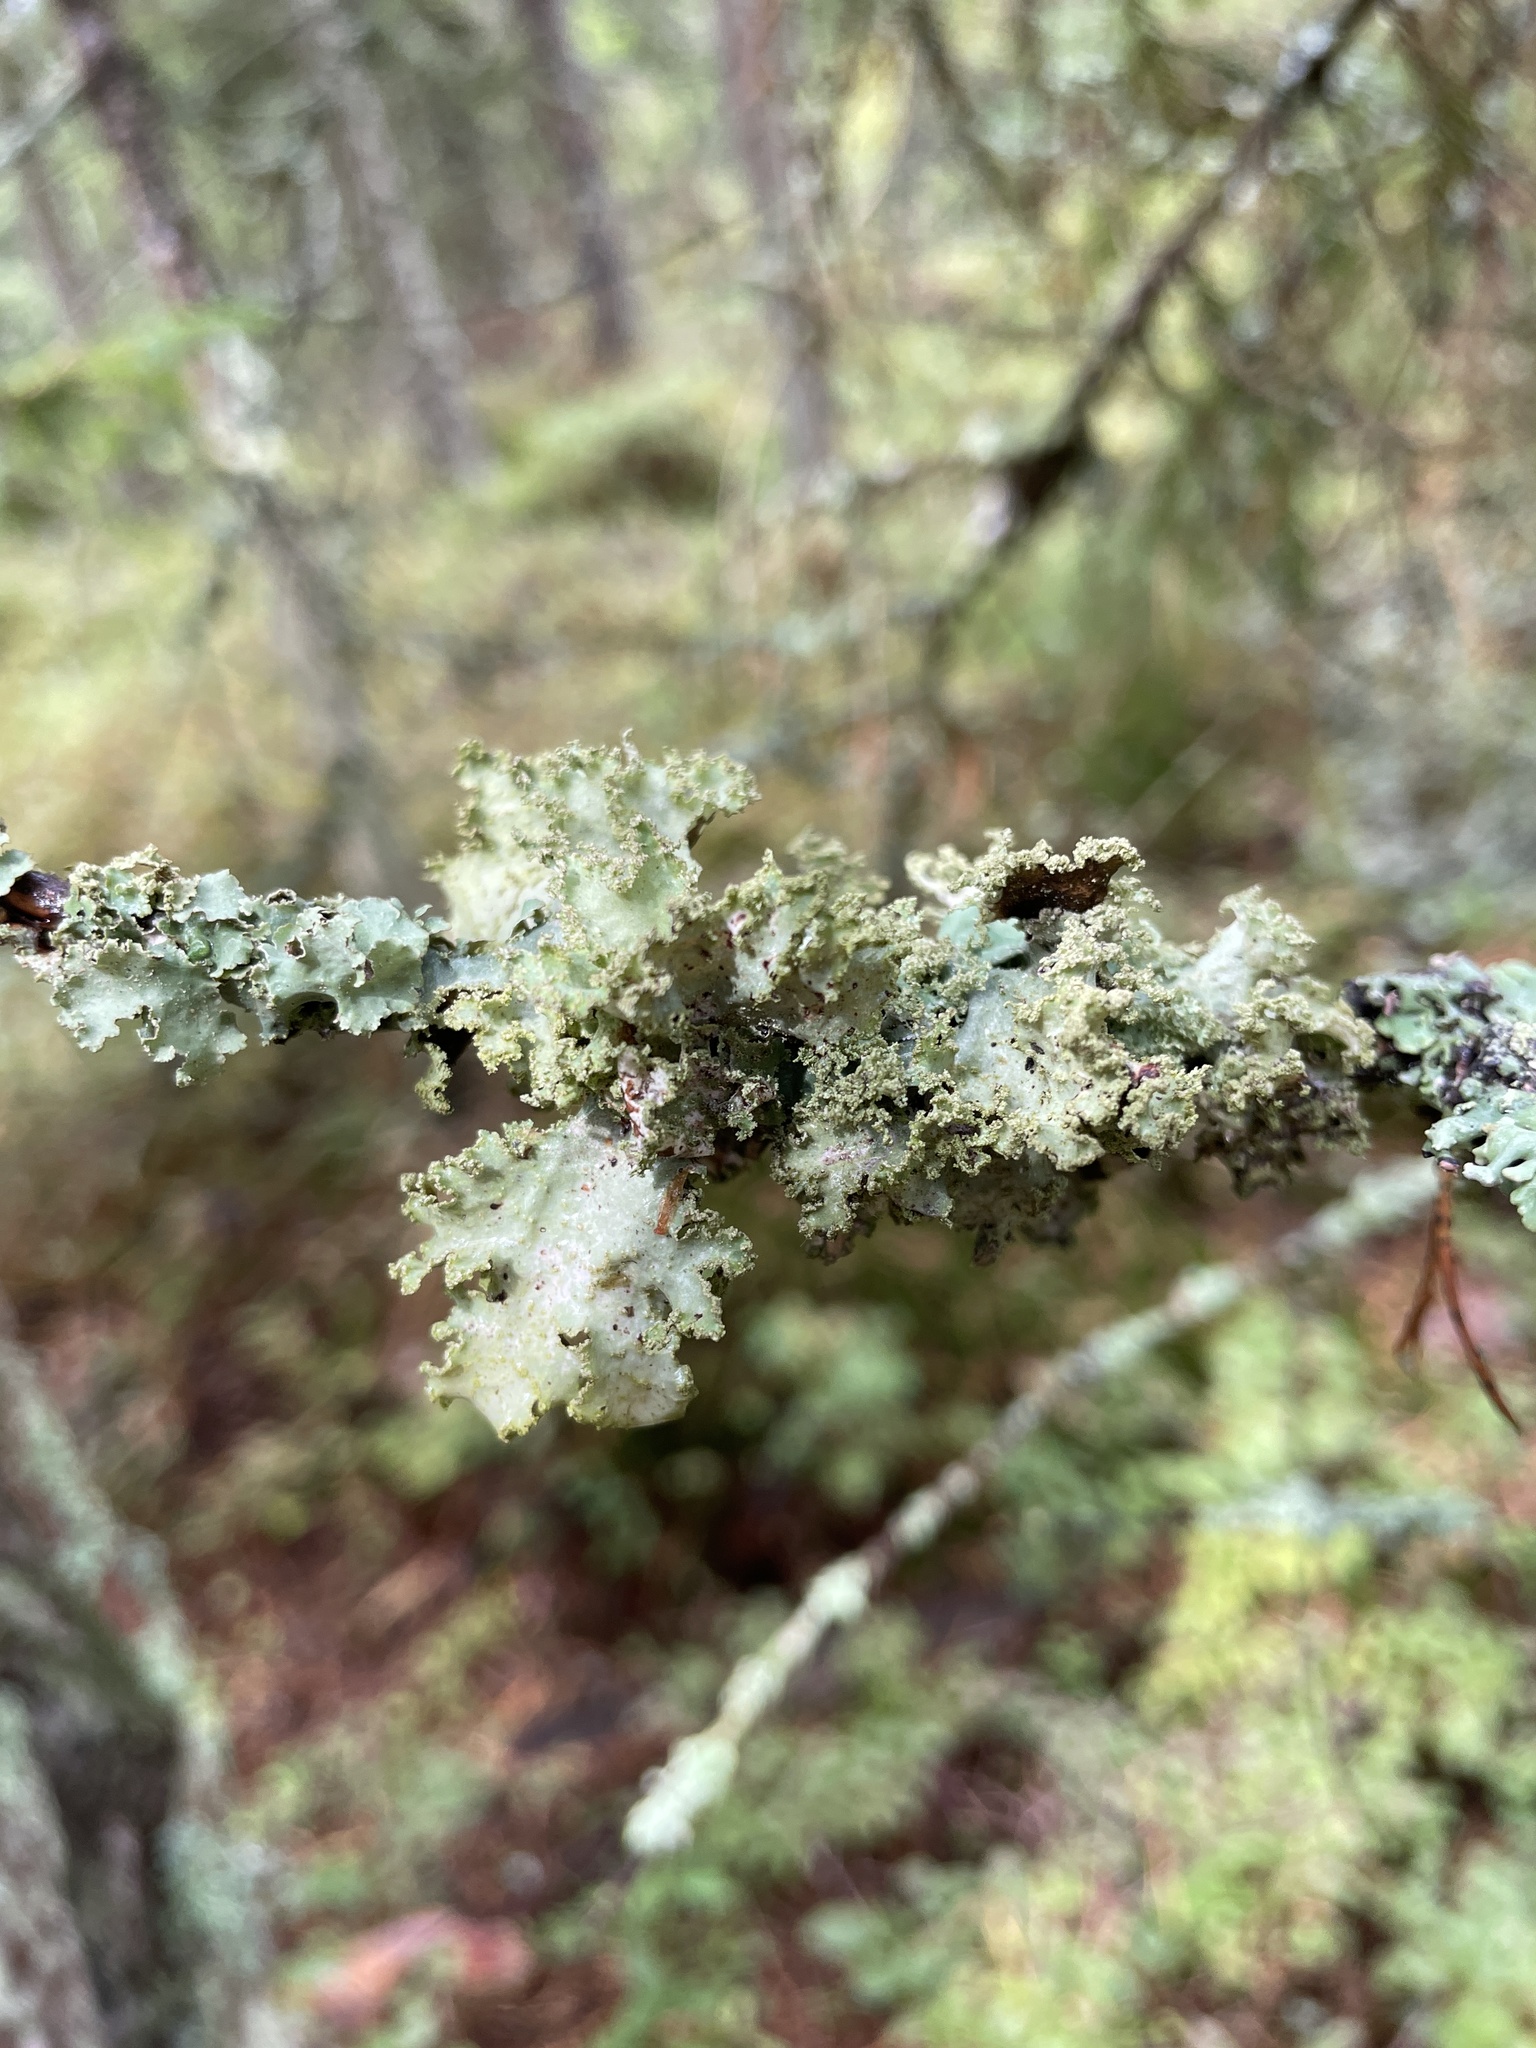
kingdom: Fungi
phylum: Ascomycota
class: Lecanoromycetes
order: Lecanorales
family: Parmeliaceae
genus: Platismatia
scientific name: Platismatia glauca
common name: Varied rag lichen
